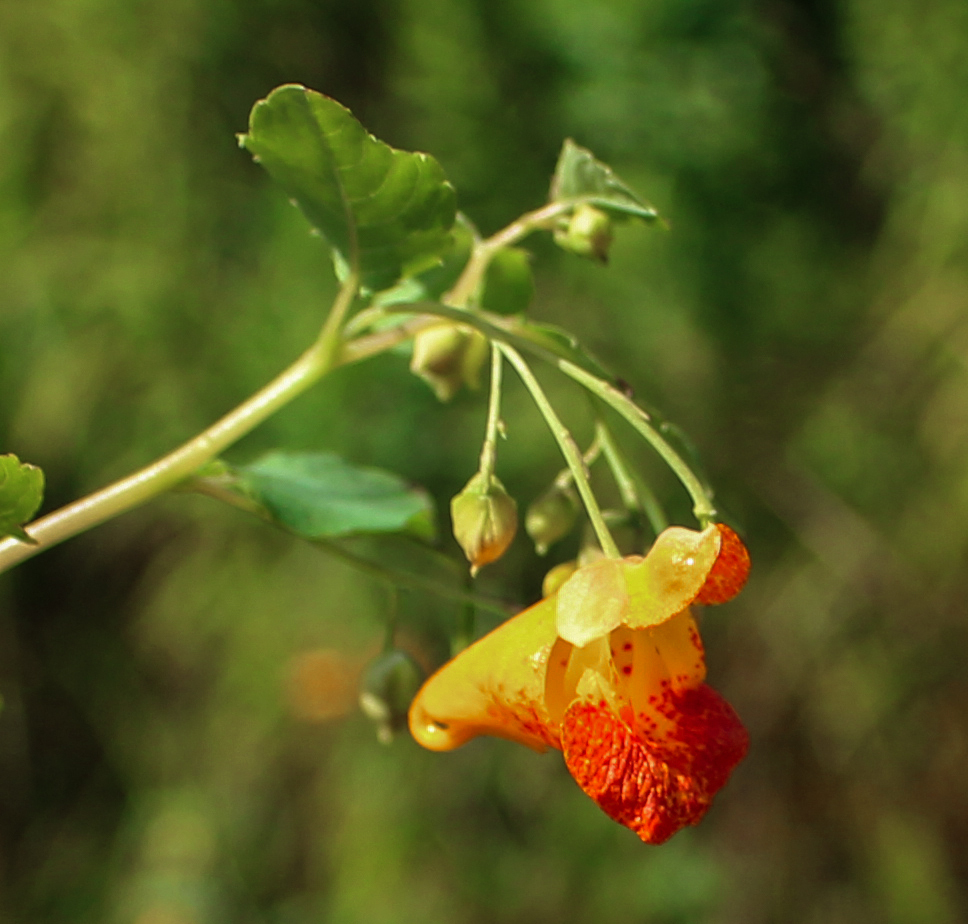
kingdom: Plantae
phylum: Tracheophyta
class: Magnoliopsida
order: Ericales
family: Balsaminaceae
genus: Impatiens
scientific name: Impatiens capensis
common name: Orange balsam
